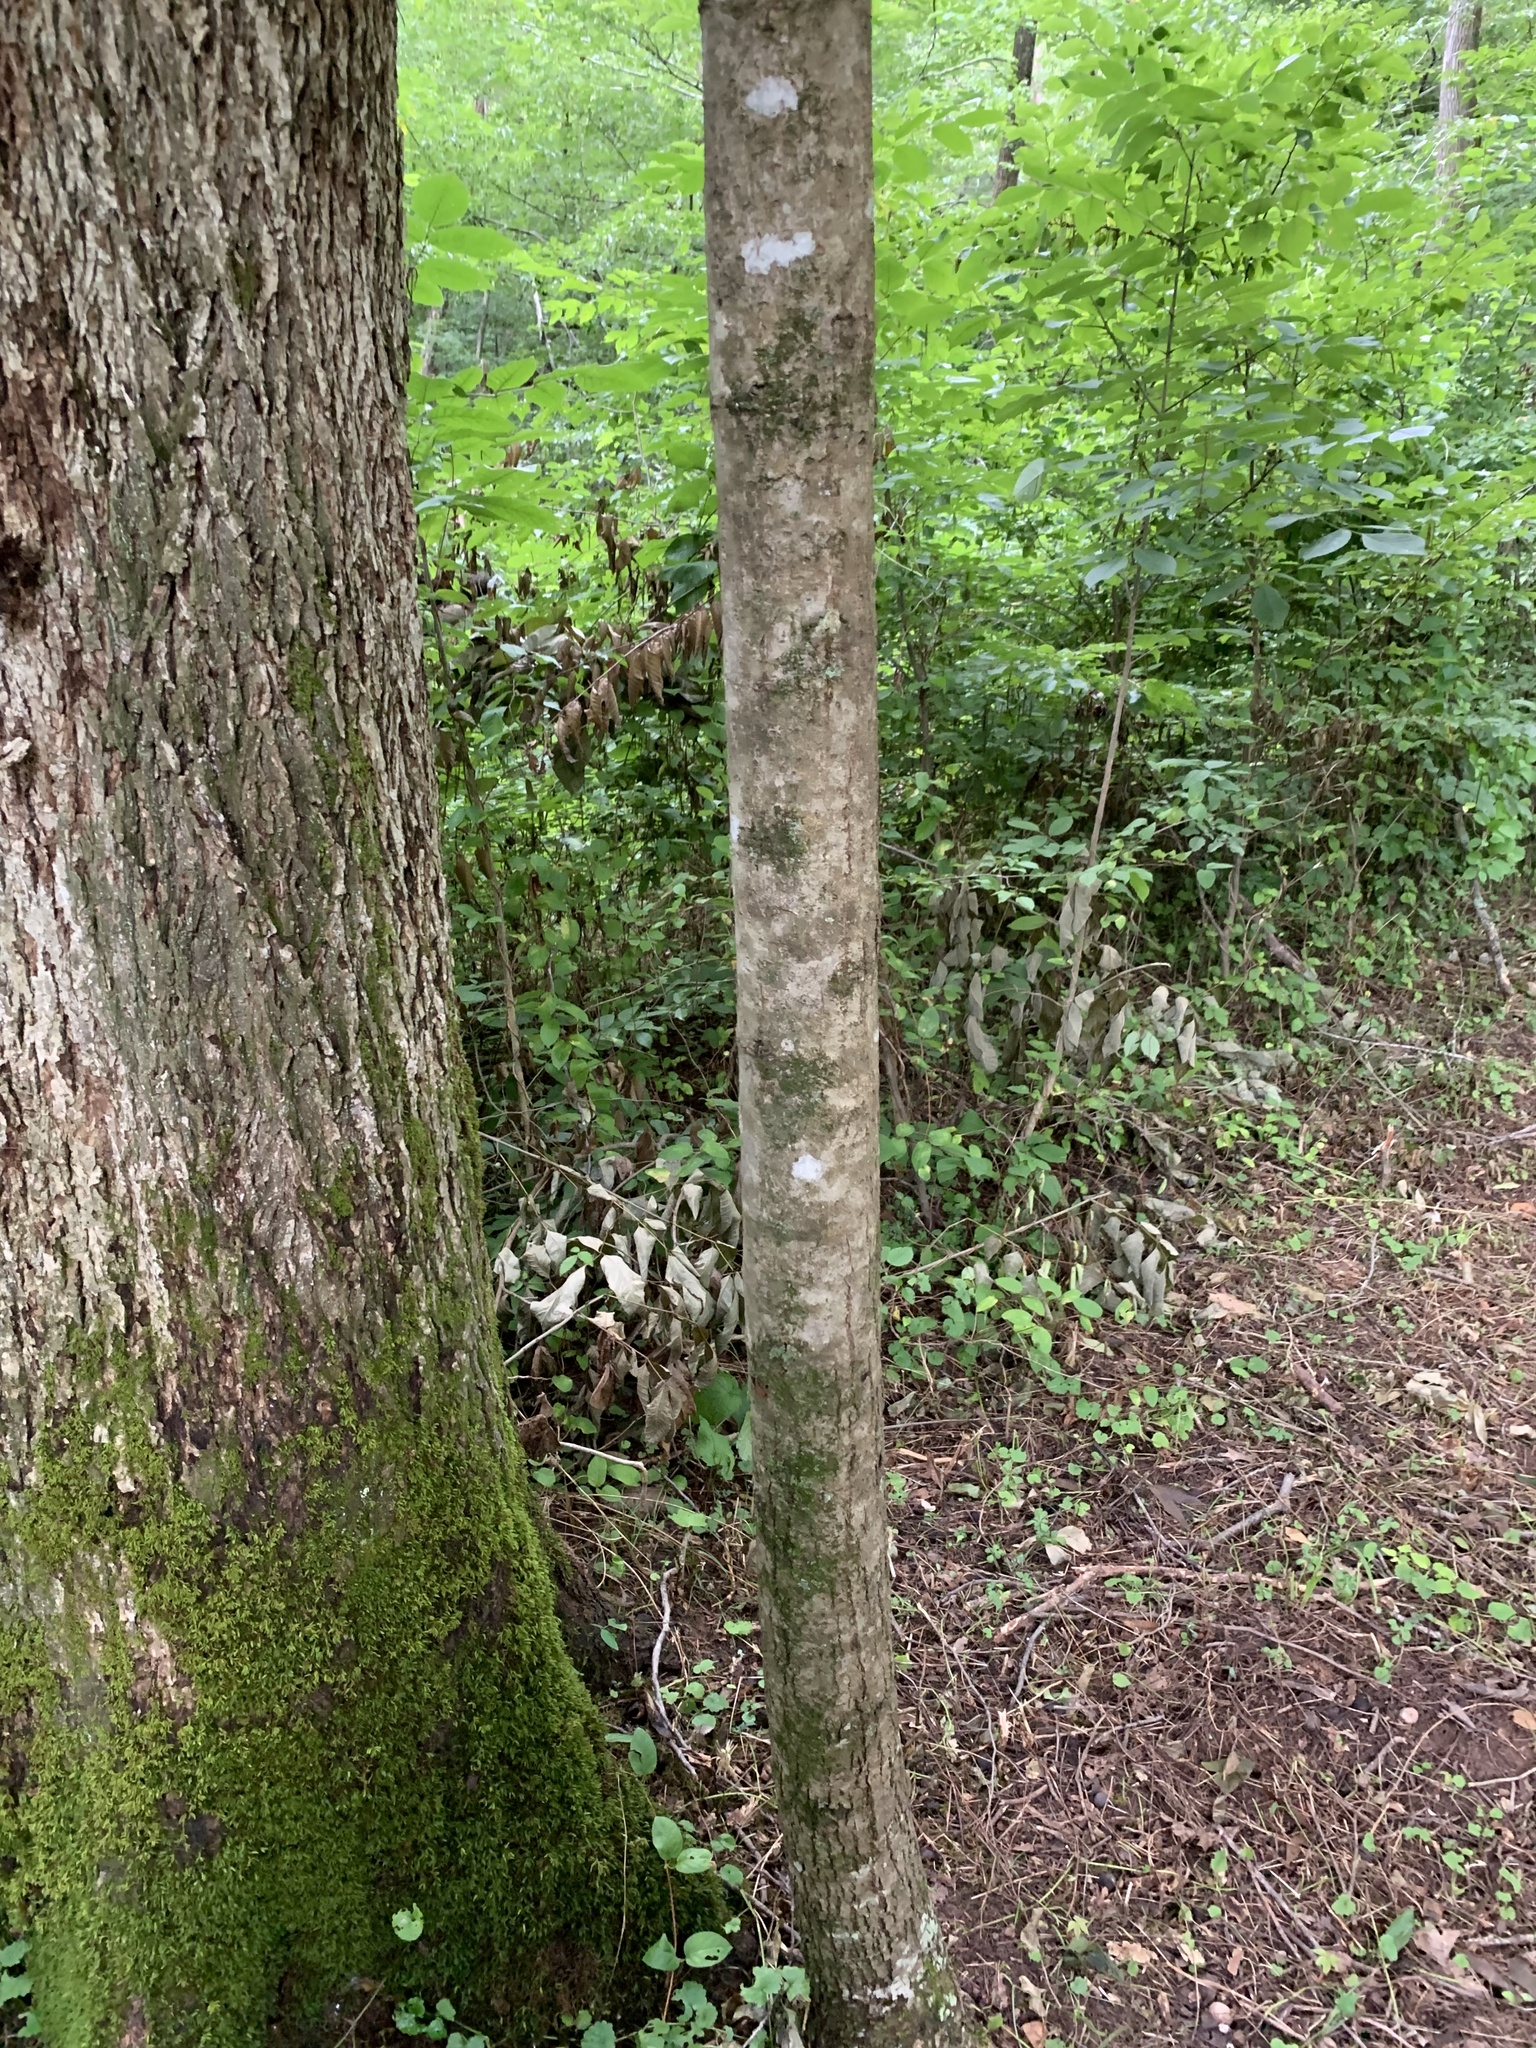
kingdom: Plantae
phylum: Tracheophyta
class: Magnoliopsida
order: Malvales
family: Malvaceae
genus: Tilia
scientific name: Tilia americana
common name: Basswood
